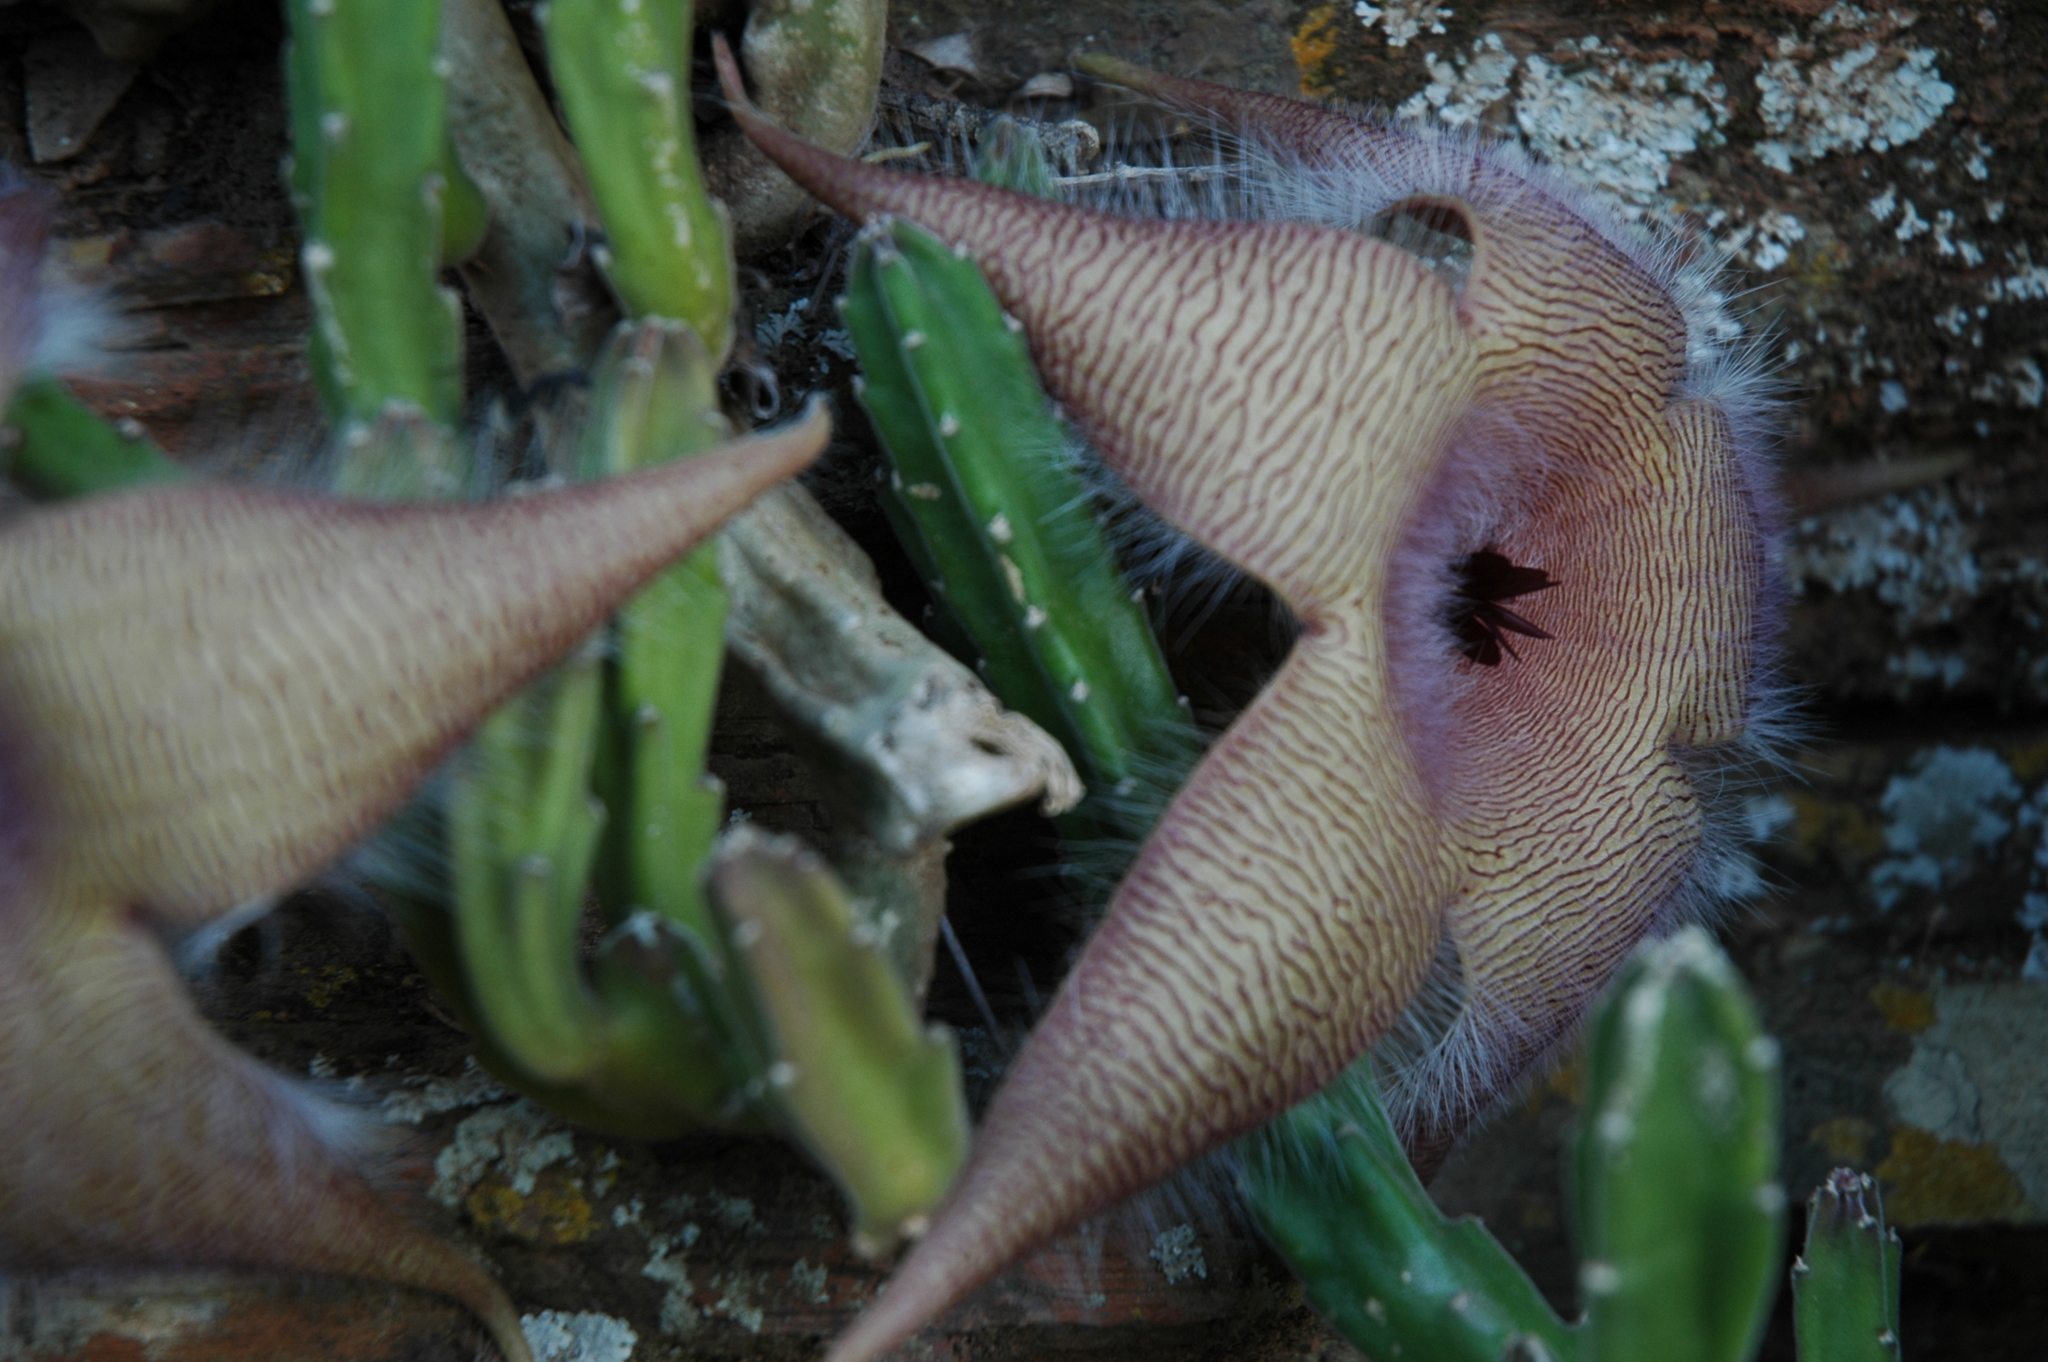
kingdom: Plantae
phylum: Tracheophyta
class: Magnoliopsida
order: Gentianales
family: Apocynaceae
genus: Ceropegia
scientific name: Ceropegia gigantea
